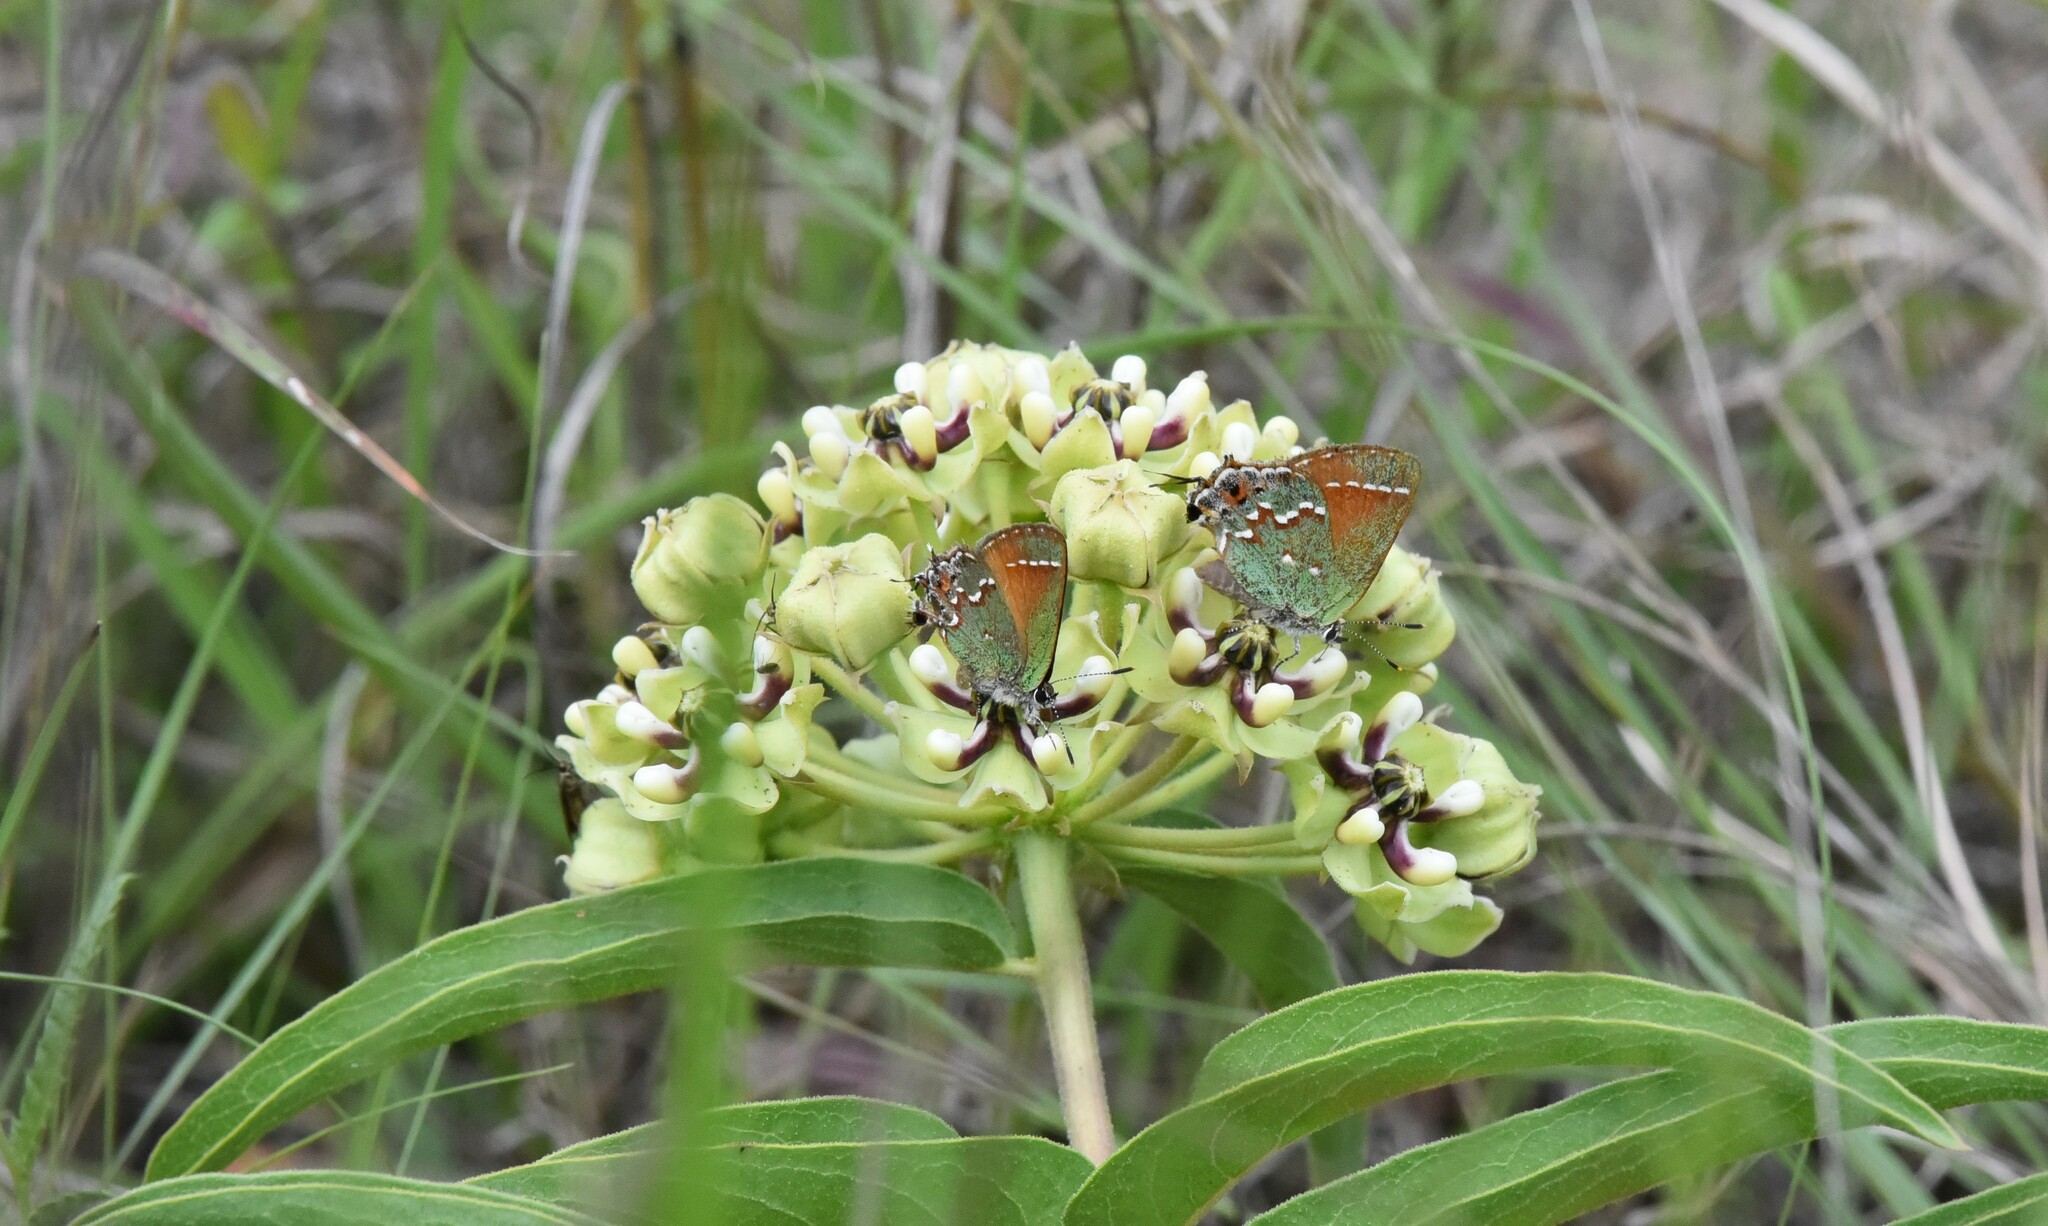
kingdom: Animalia
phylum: Arthropoda
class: Insecta
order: Lepidoptera
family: Lycaenidae
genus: Mitoura
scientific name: Mitoura gryneus
